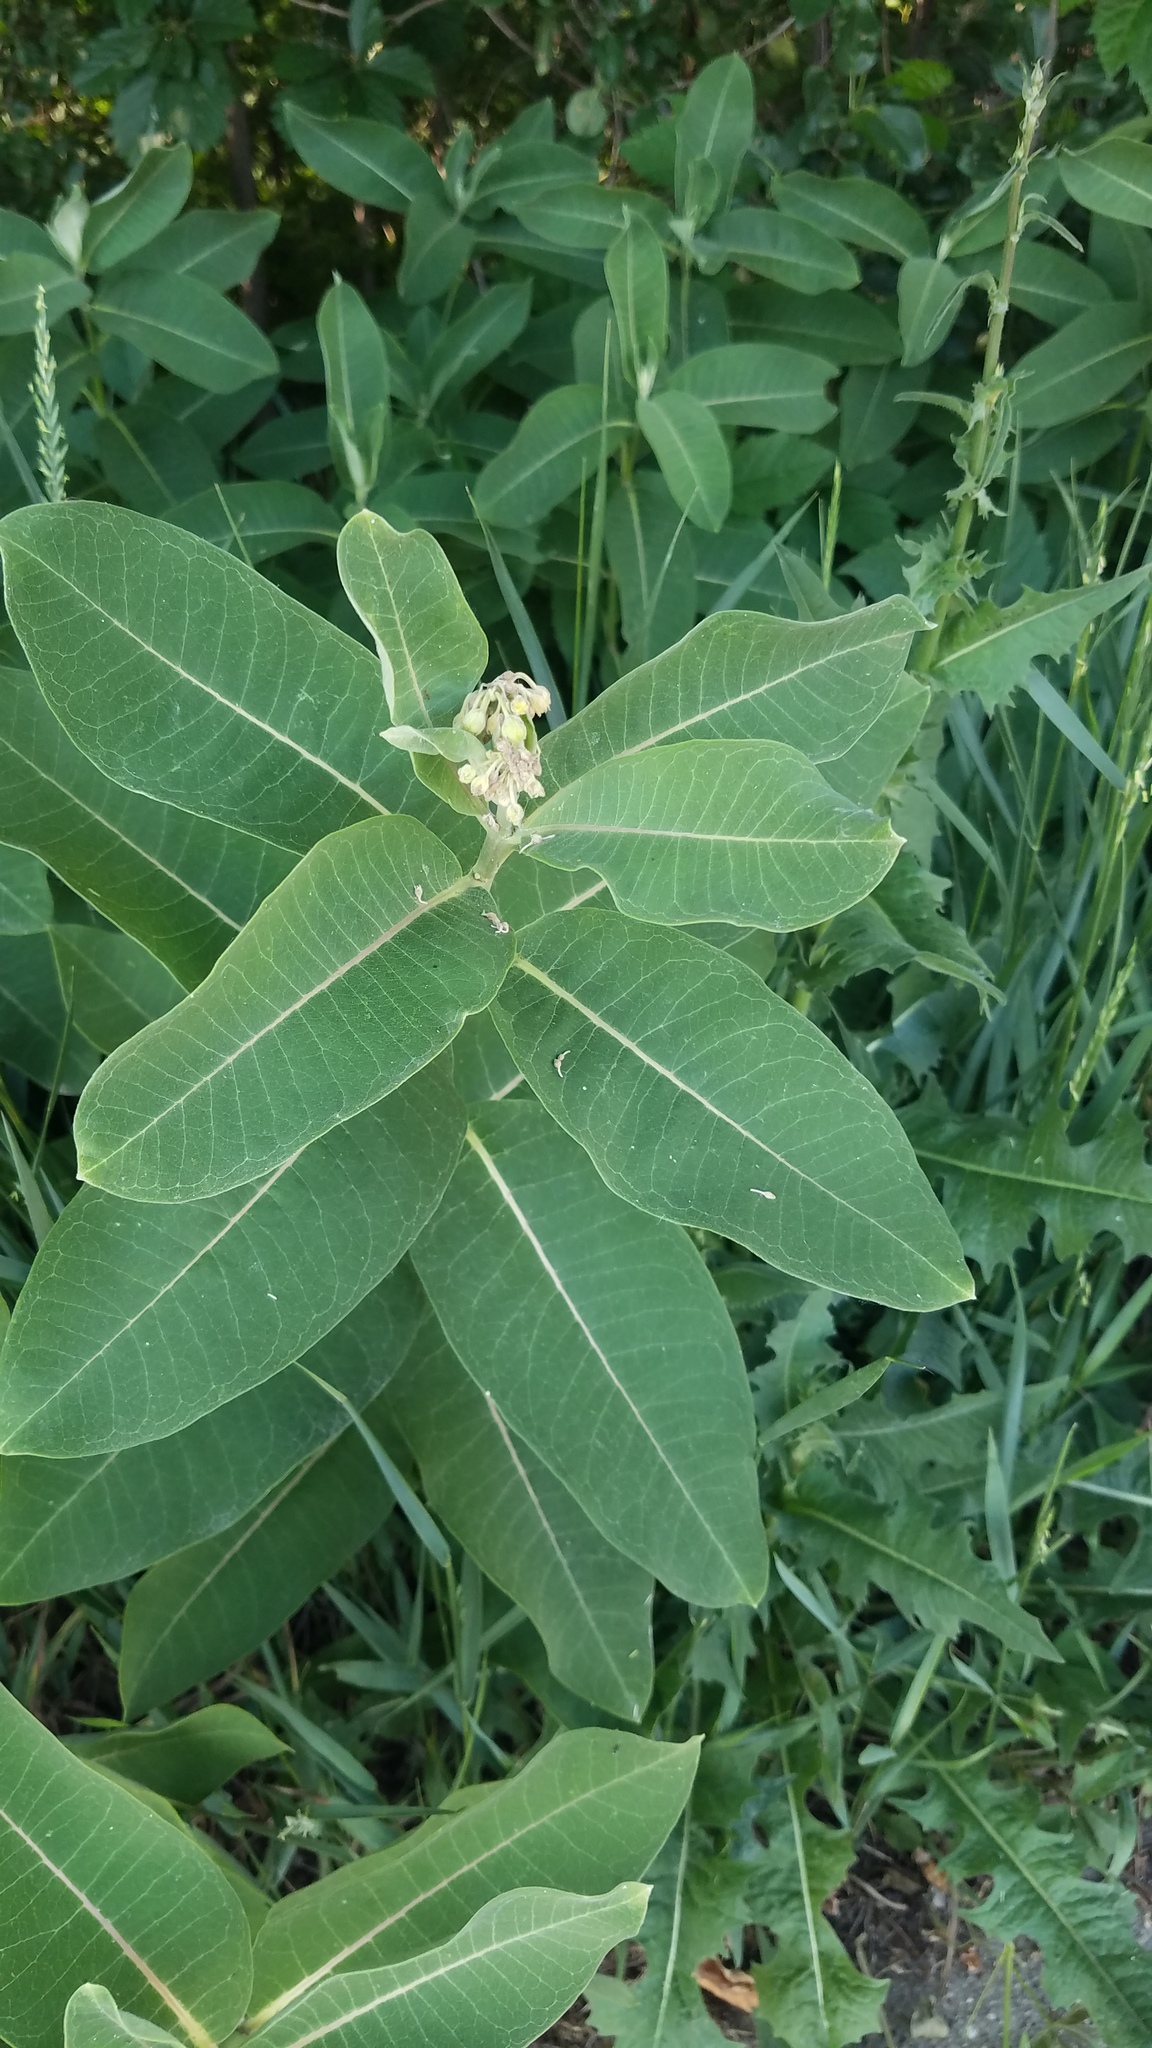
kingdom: Plantae
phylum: Tracheophyta
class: Magnoliopsida
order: Gentianales
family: Apocynaceae
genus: Asclepias
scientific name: Asclepias syriaca
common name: Common milkweed
